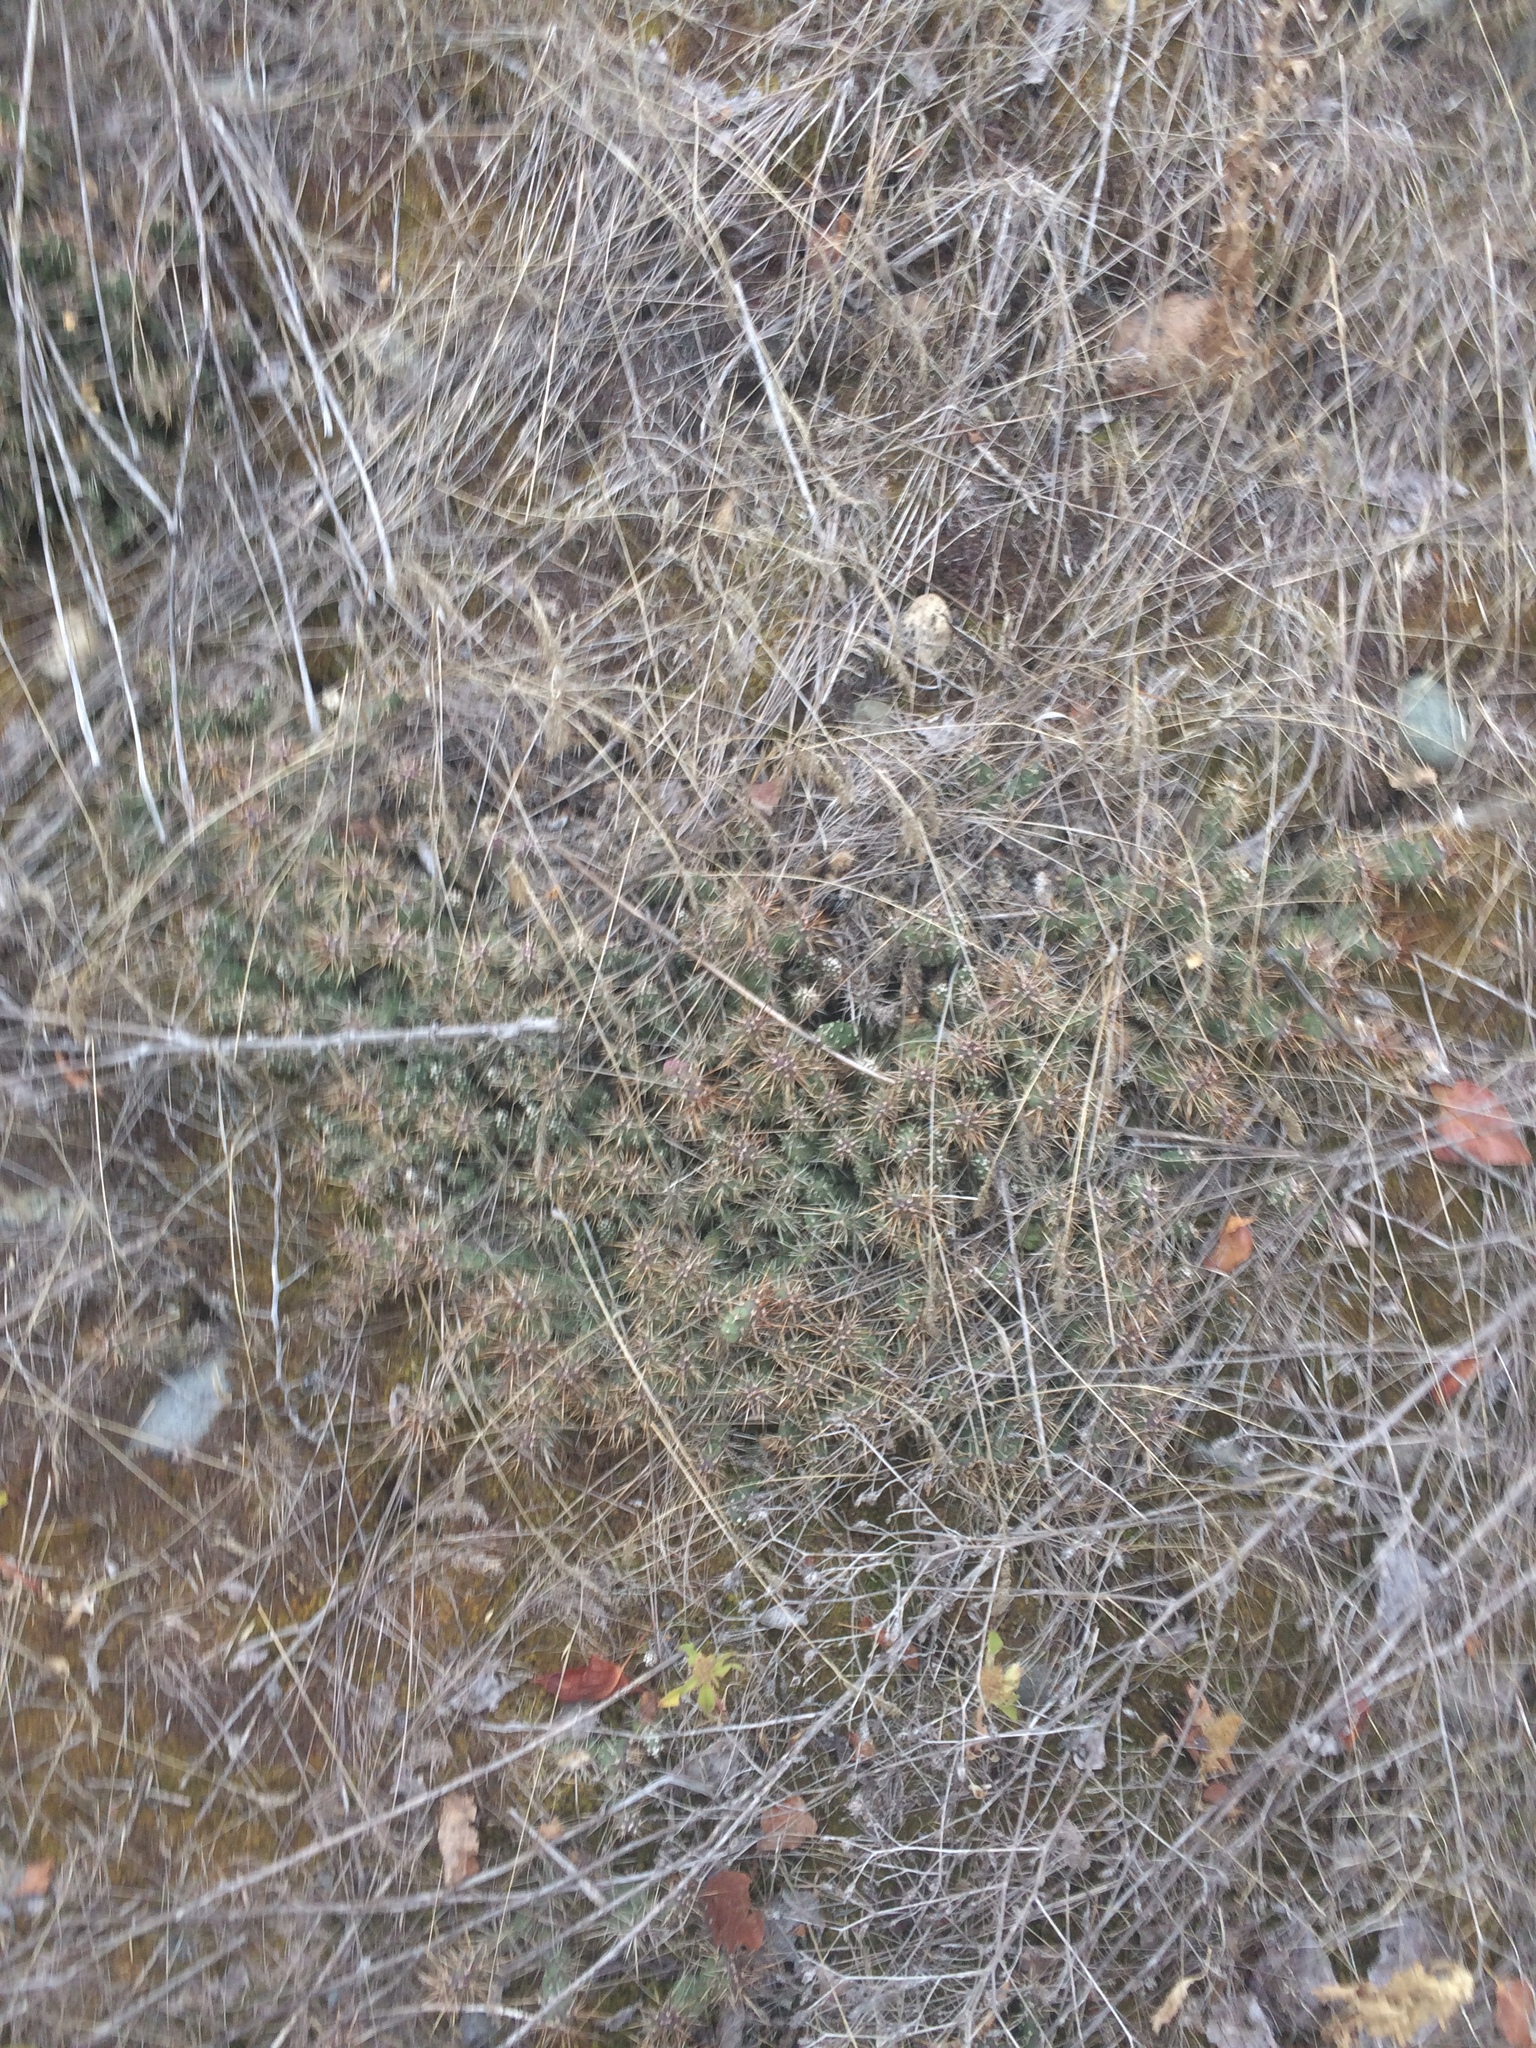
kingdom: Plantae
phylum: Tracheophyta
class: Magnoliopsida
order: Caryophyllales
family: Cactaceae
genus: Opuntia
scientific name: Opuntia fragilis
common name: Brittle cactus
